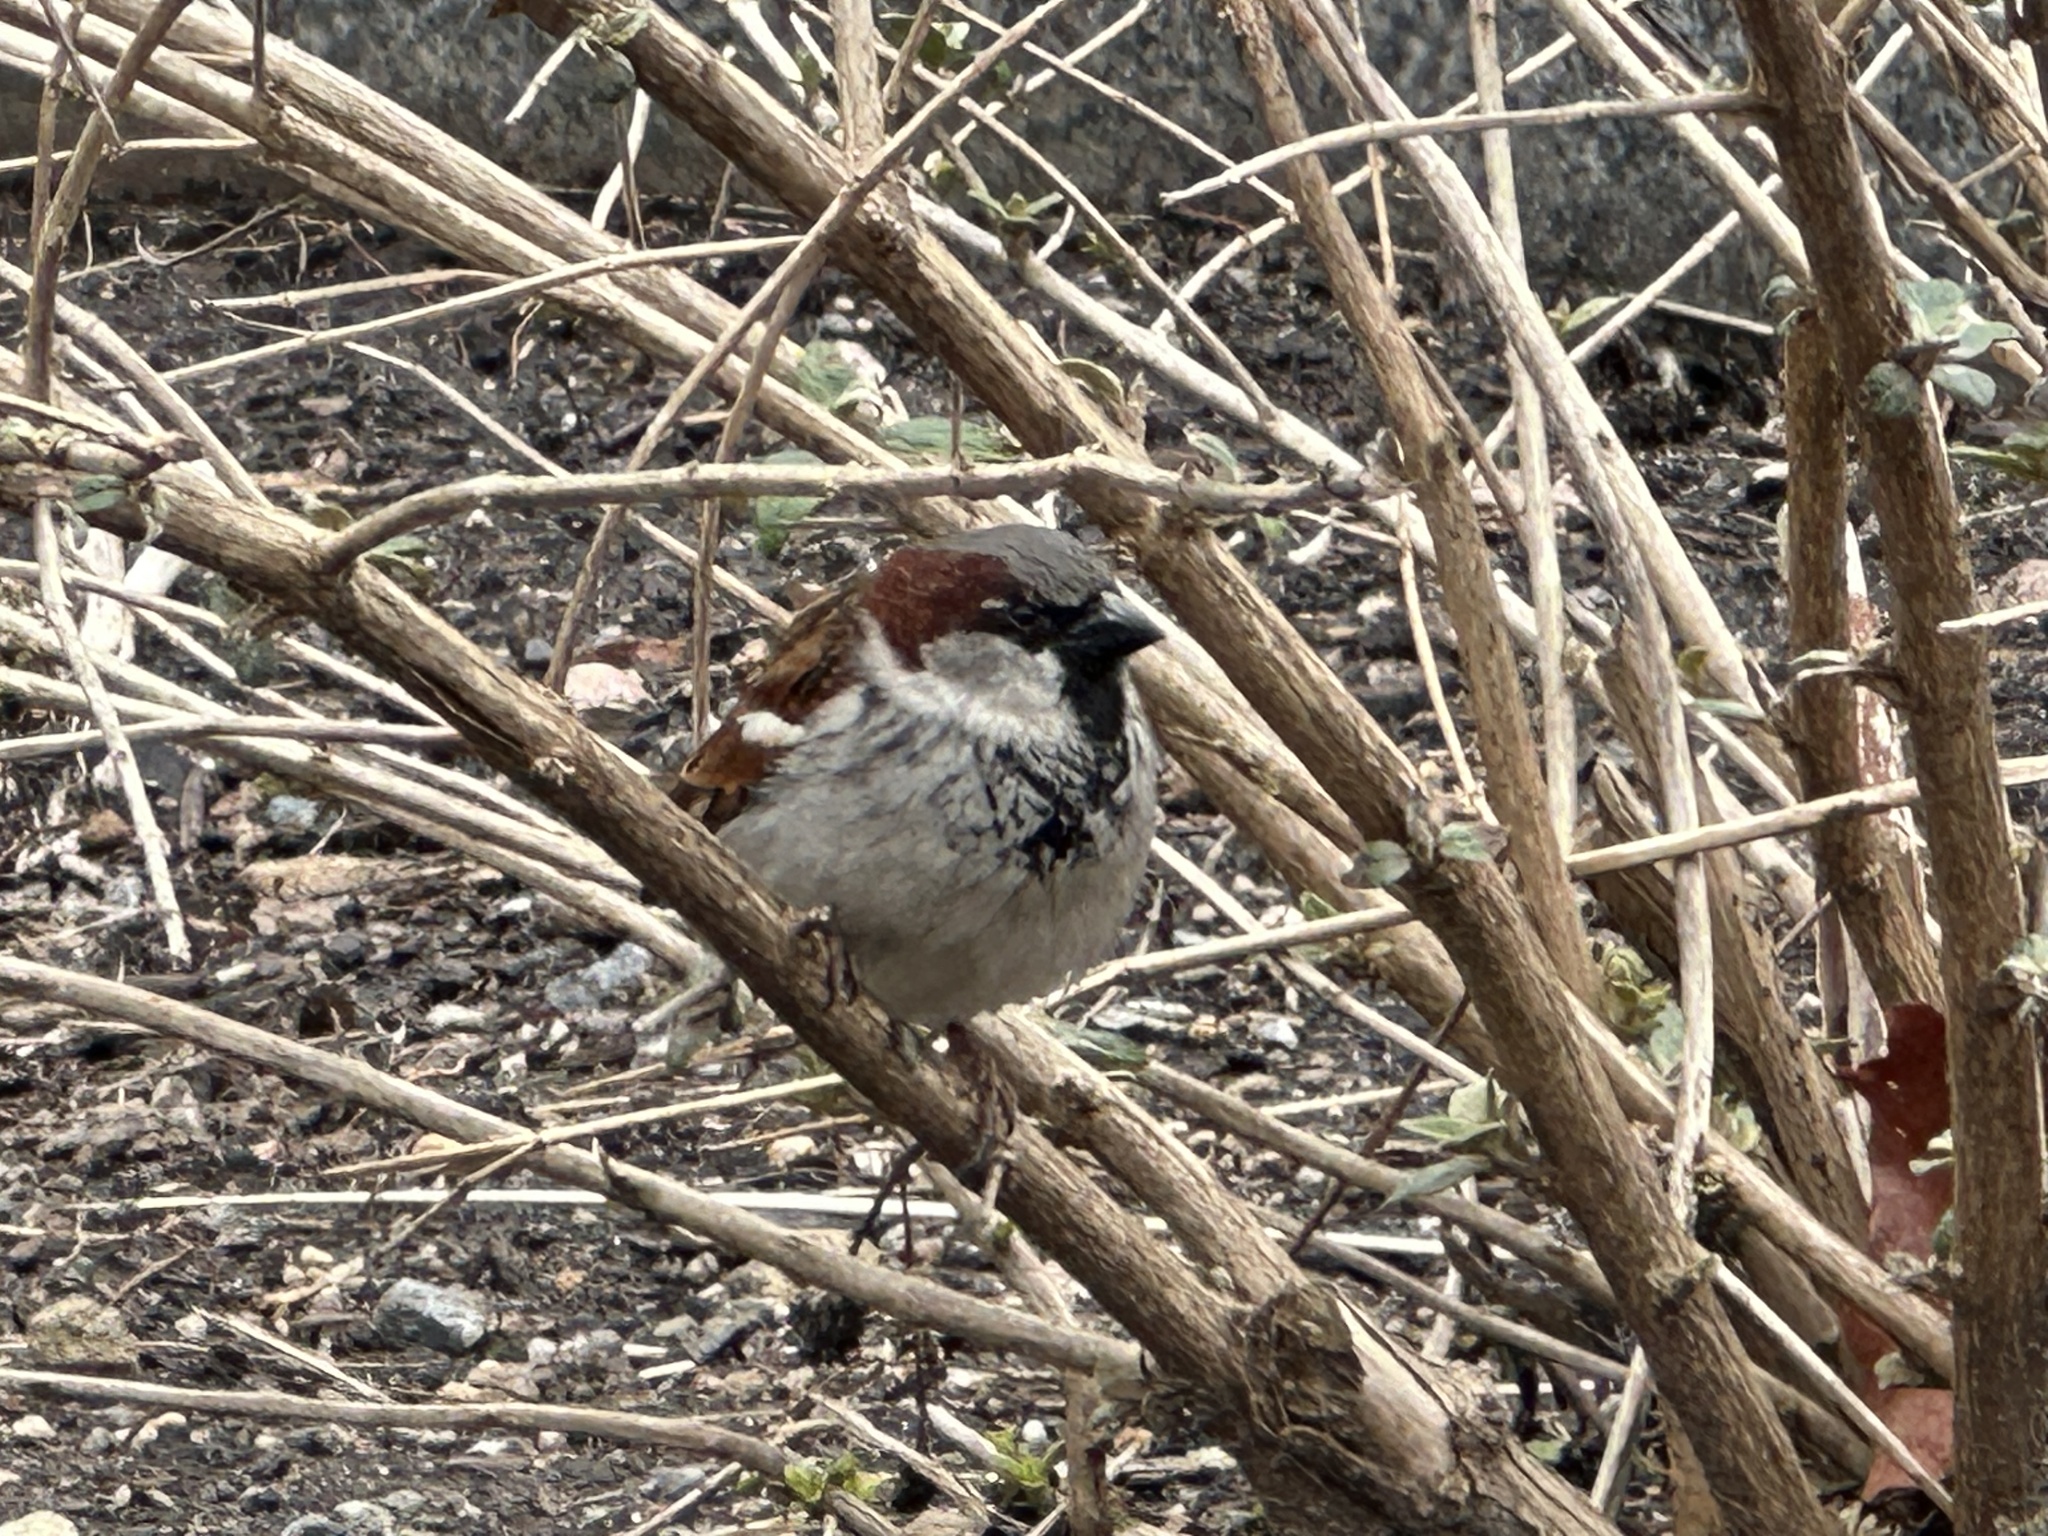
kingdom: Animalia
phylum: Chordata
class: Aves
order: Passeriformes
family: Passeridae
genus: Passer
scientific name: Passer domesticus
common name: House sparrow
